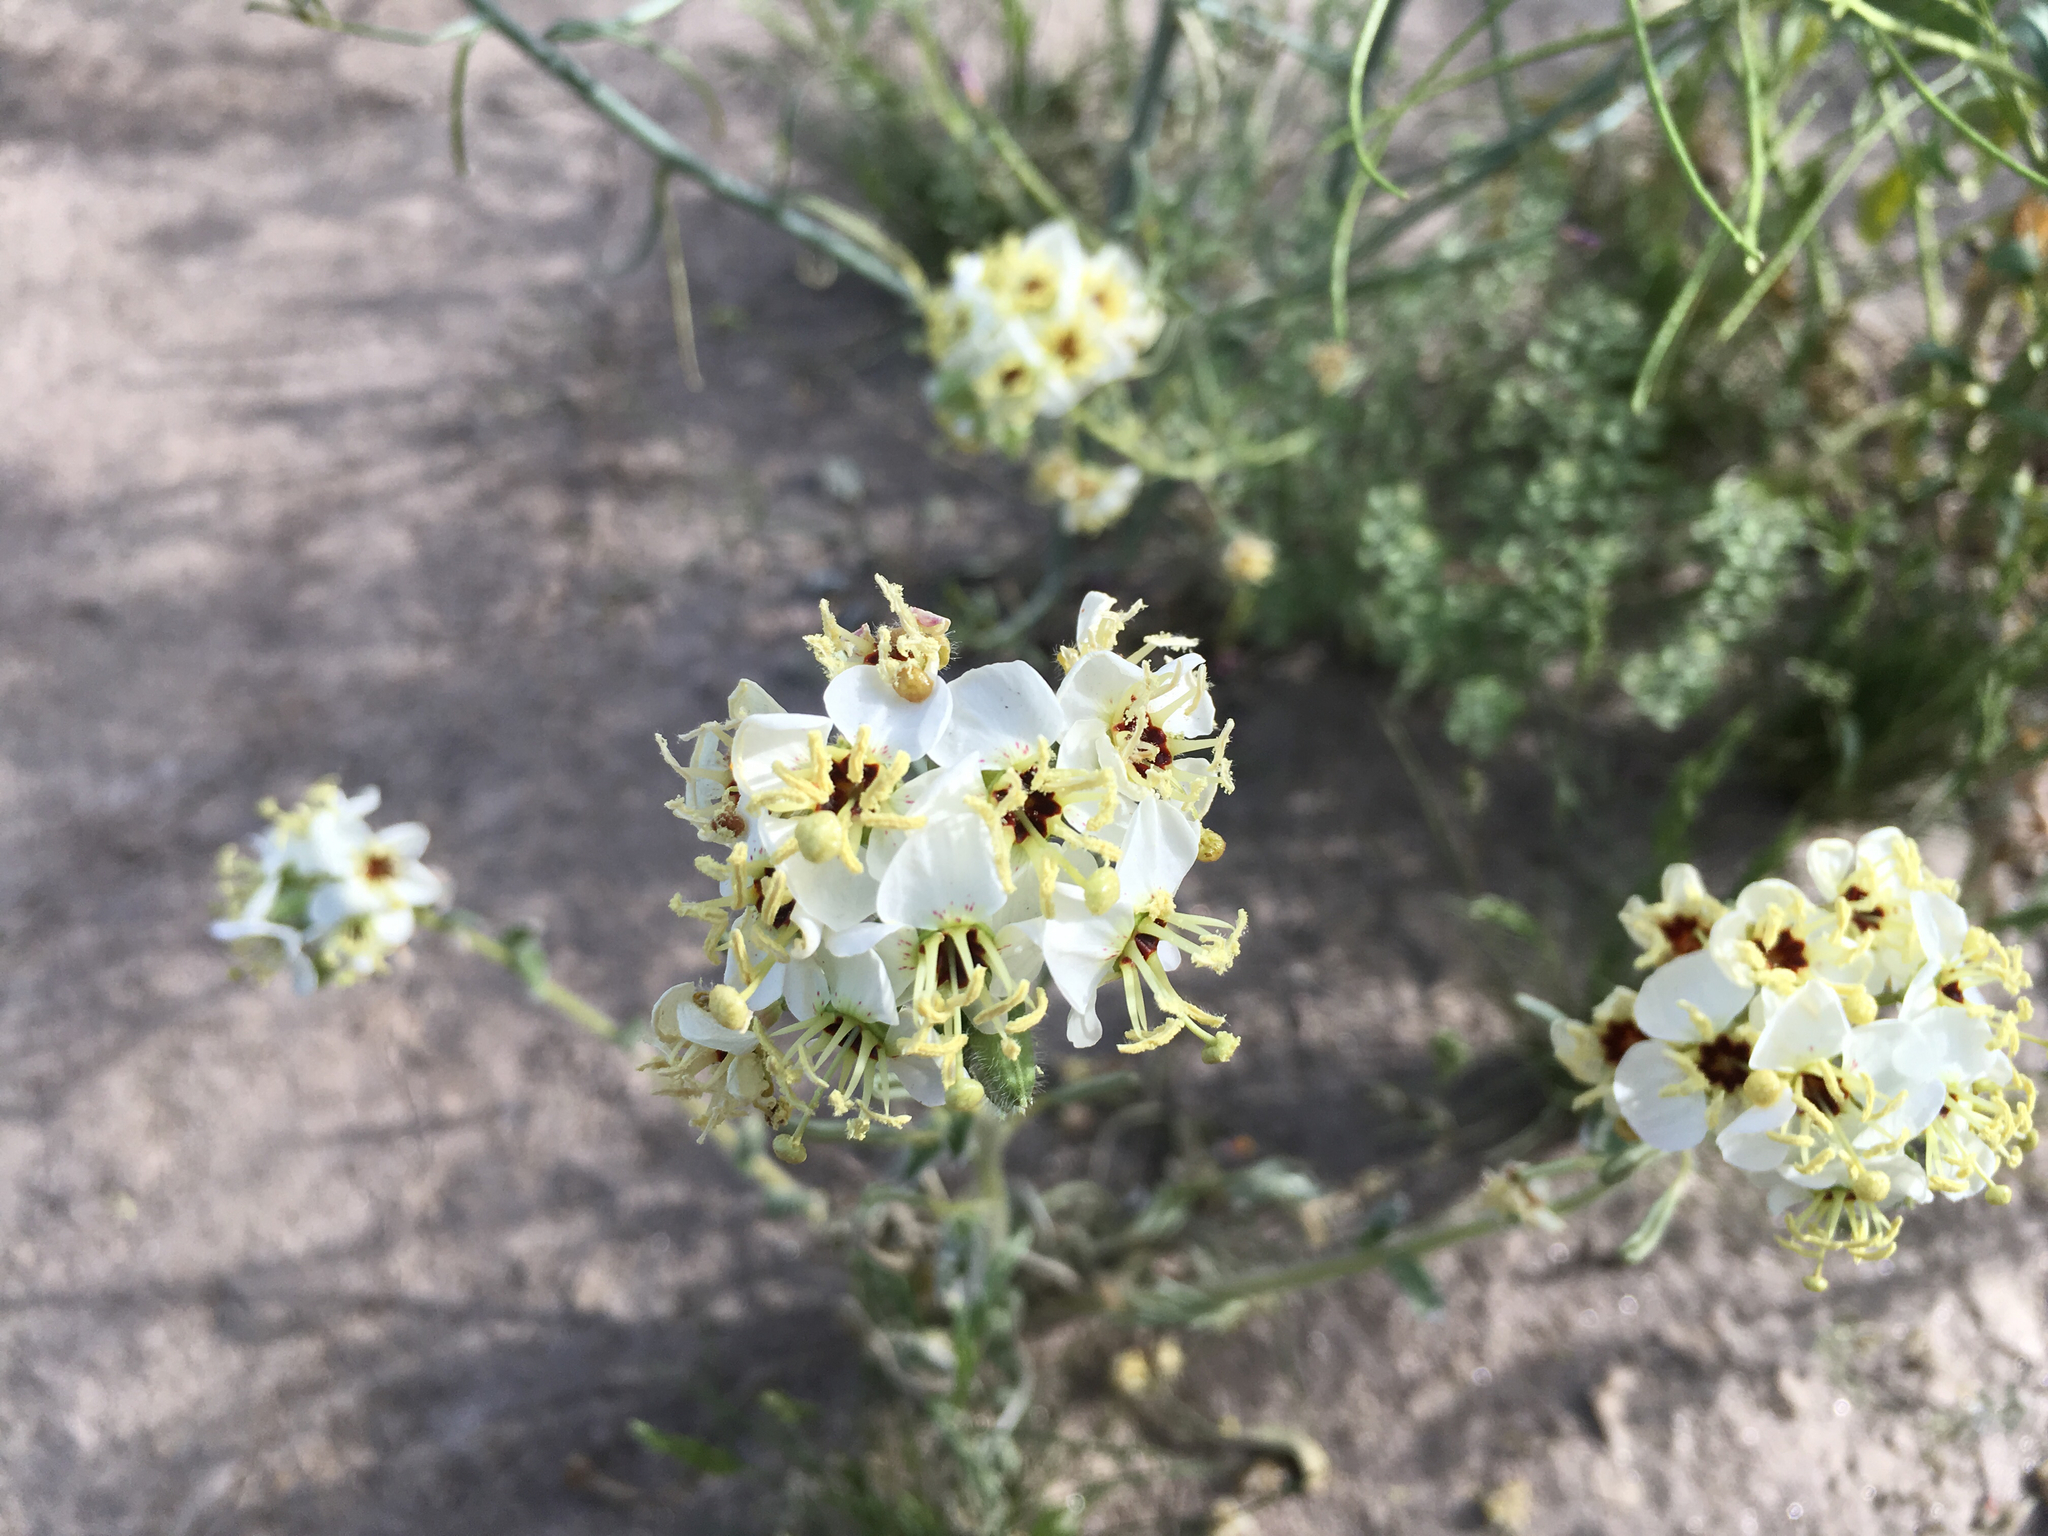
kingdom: Plantae
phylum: Tracheophyta
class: Magnoliopsida
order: Myrtales
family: Onagraceae
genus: Chylismia
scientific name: Chylismia claviformis
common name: Browneyes
